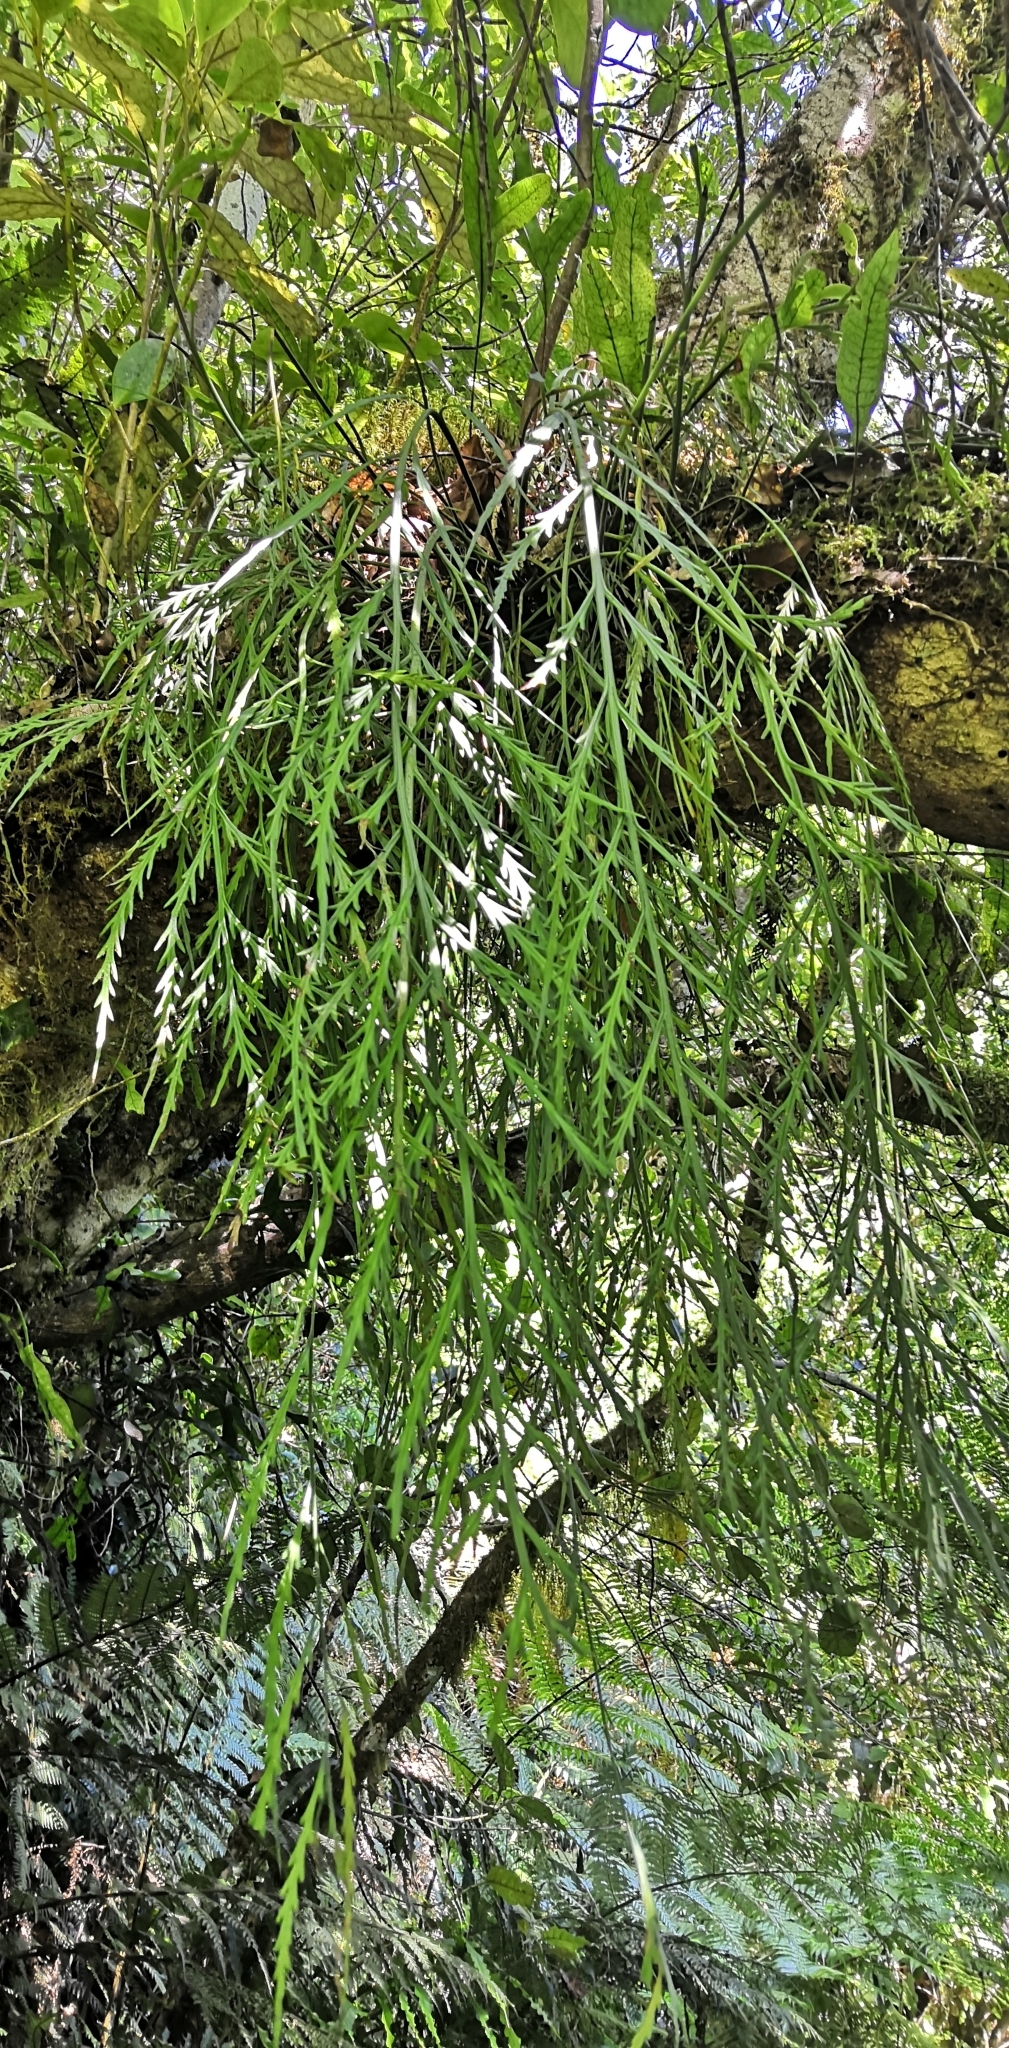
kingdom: Plantae
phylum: Tracheophyta
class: Polypodiopsida
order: Polypodiales
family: Aspleniaceae
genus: Asplenium
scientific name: Asplenium flaccidum
